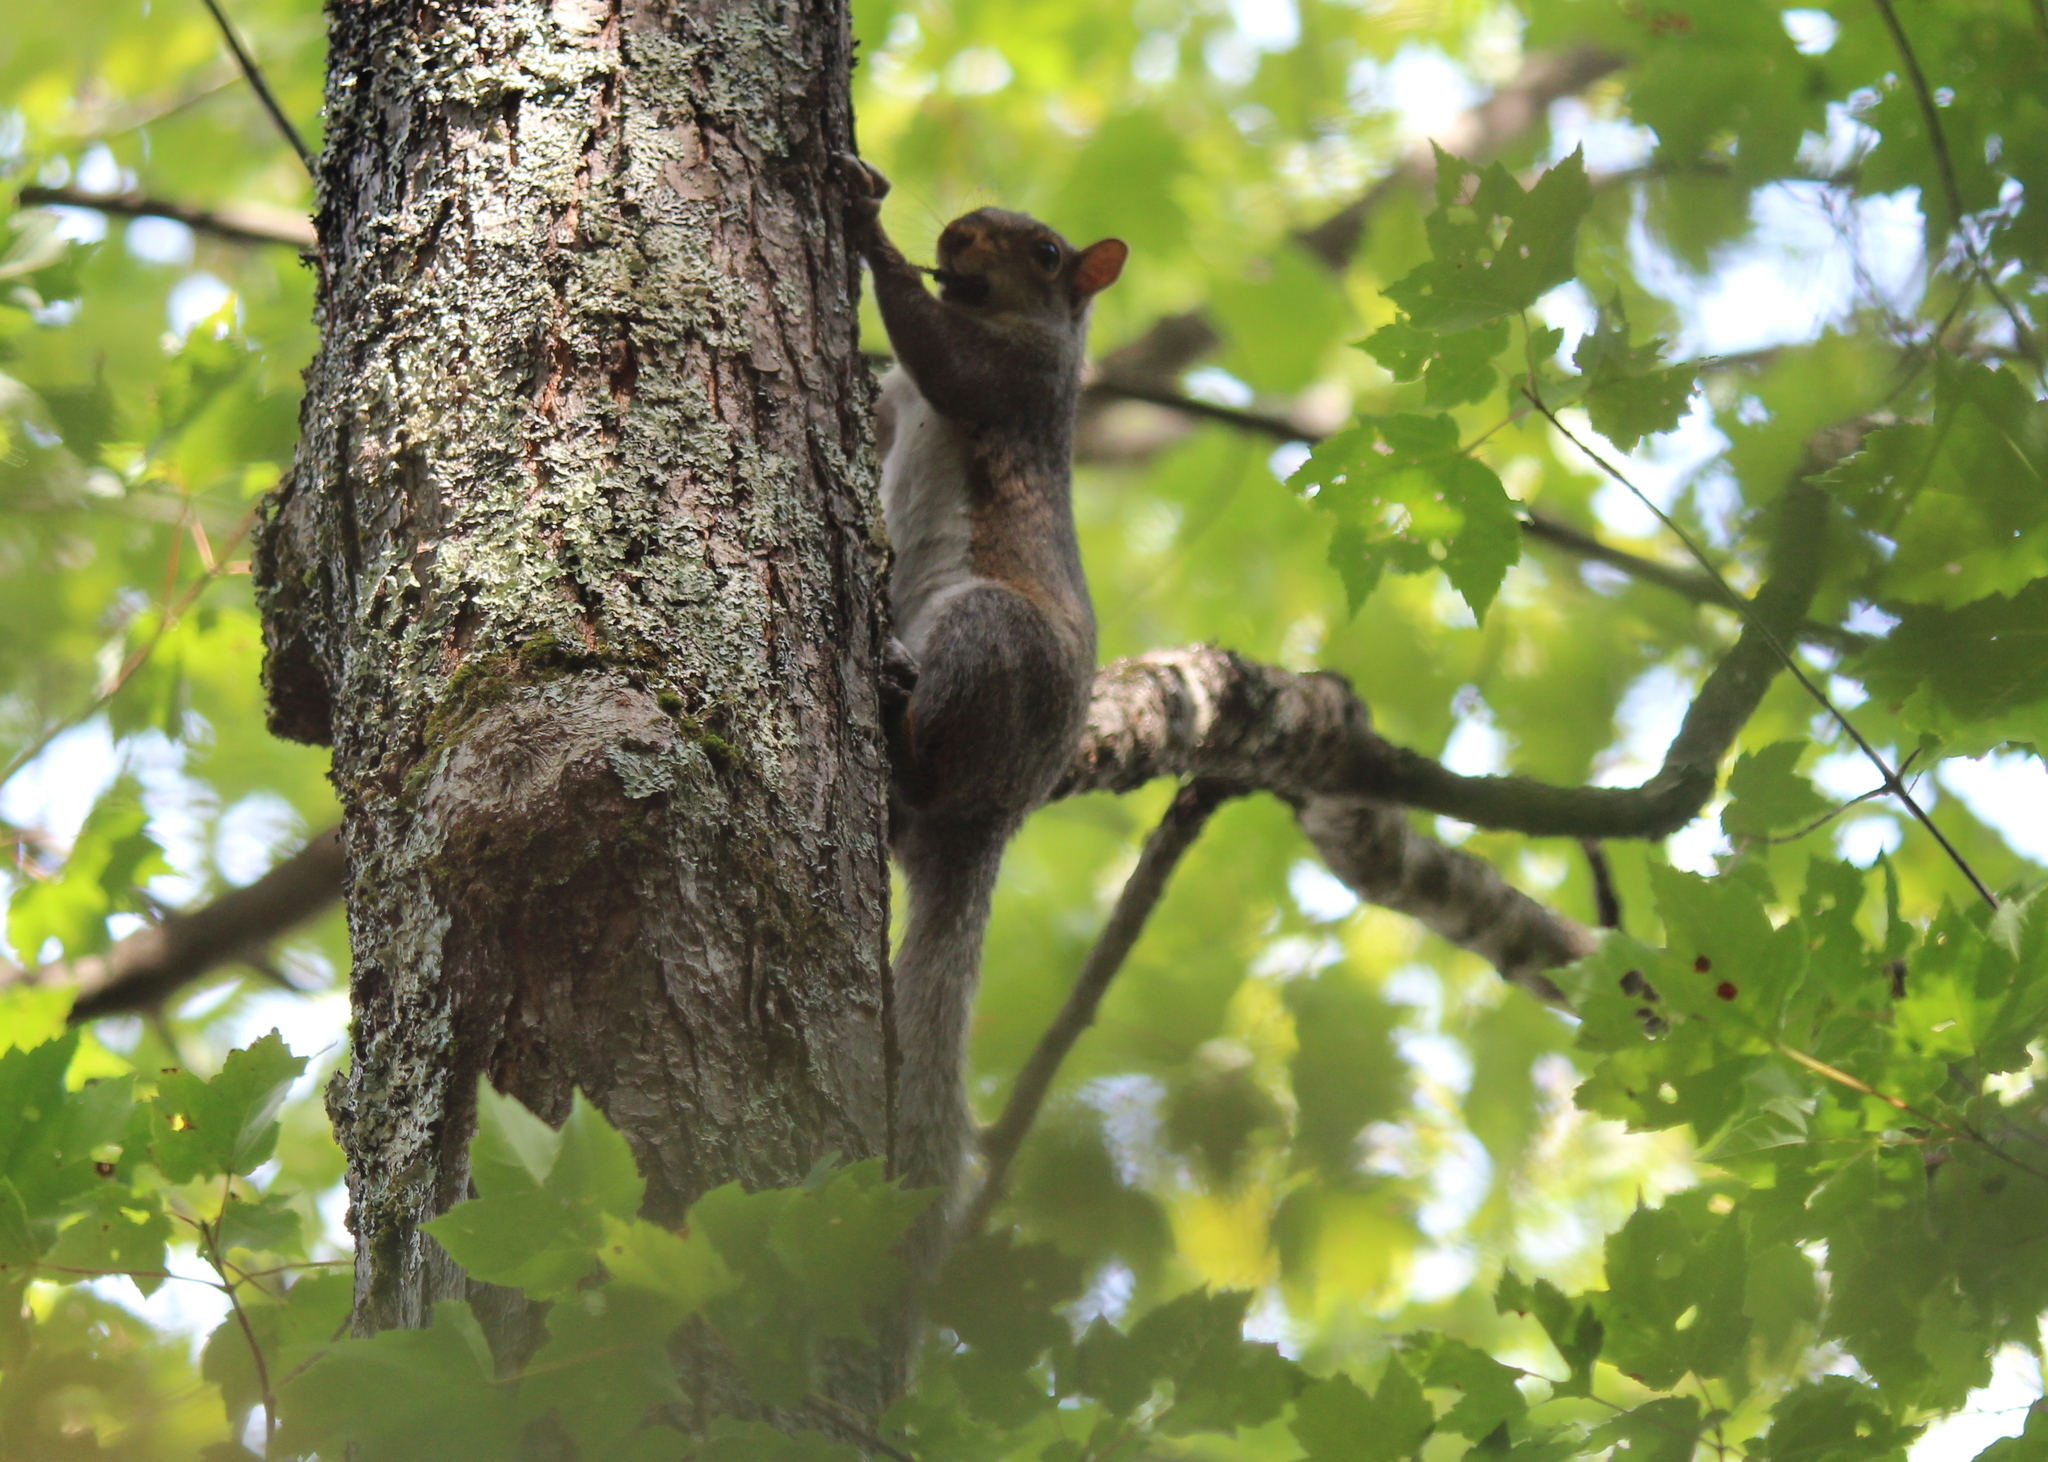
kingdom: Animalia
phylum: Chordata
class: Mammalia
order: Rodentia
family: Sciuridae
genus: Sciurus
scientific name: Sciurus carolinensis
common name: Eastern gray squirrel
